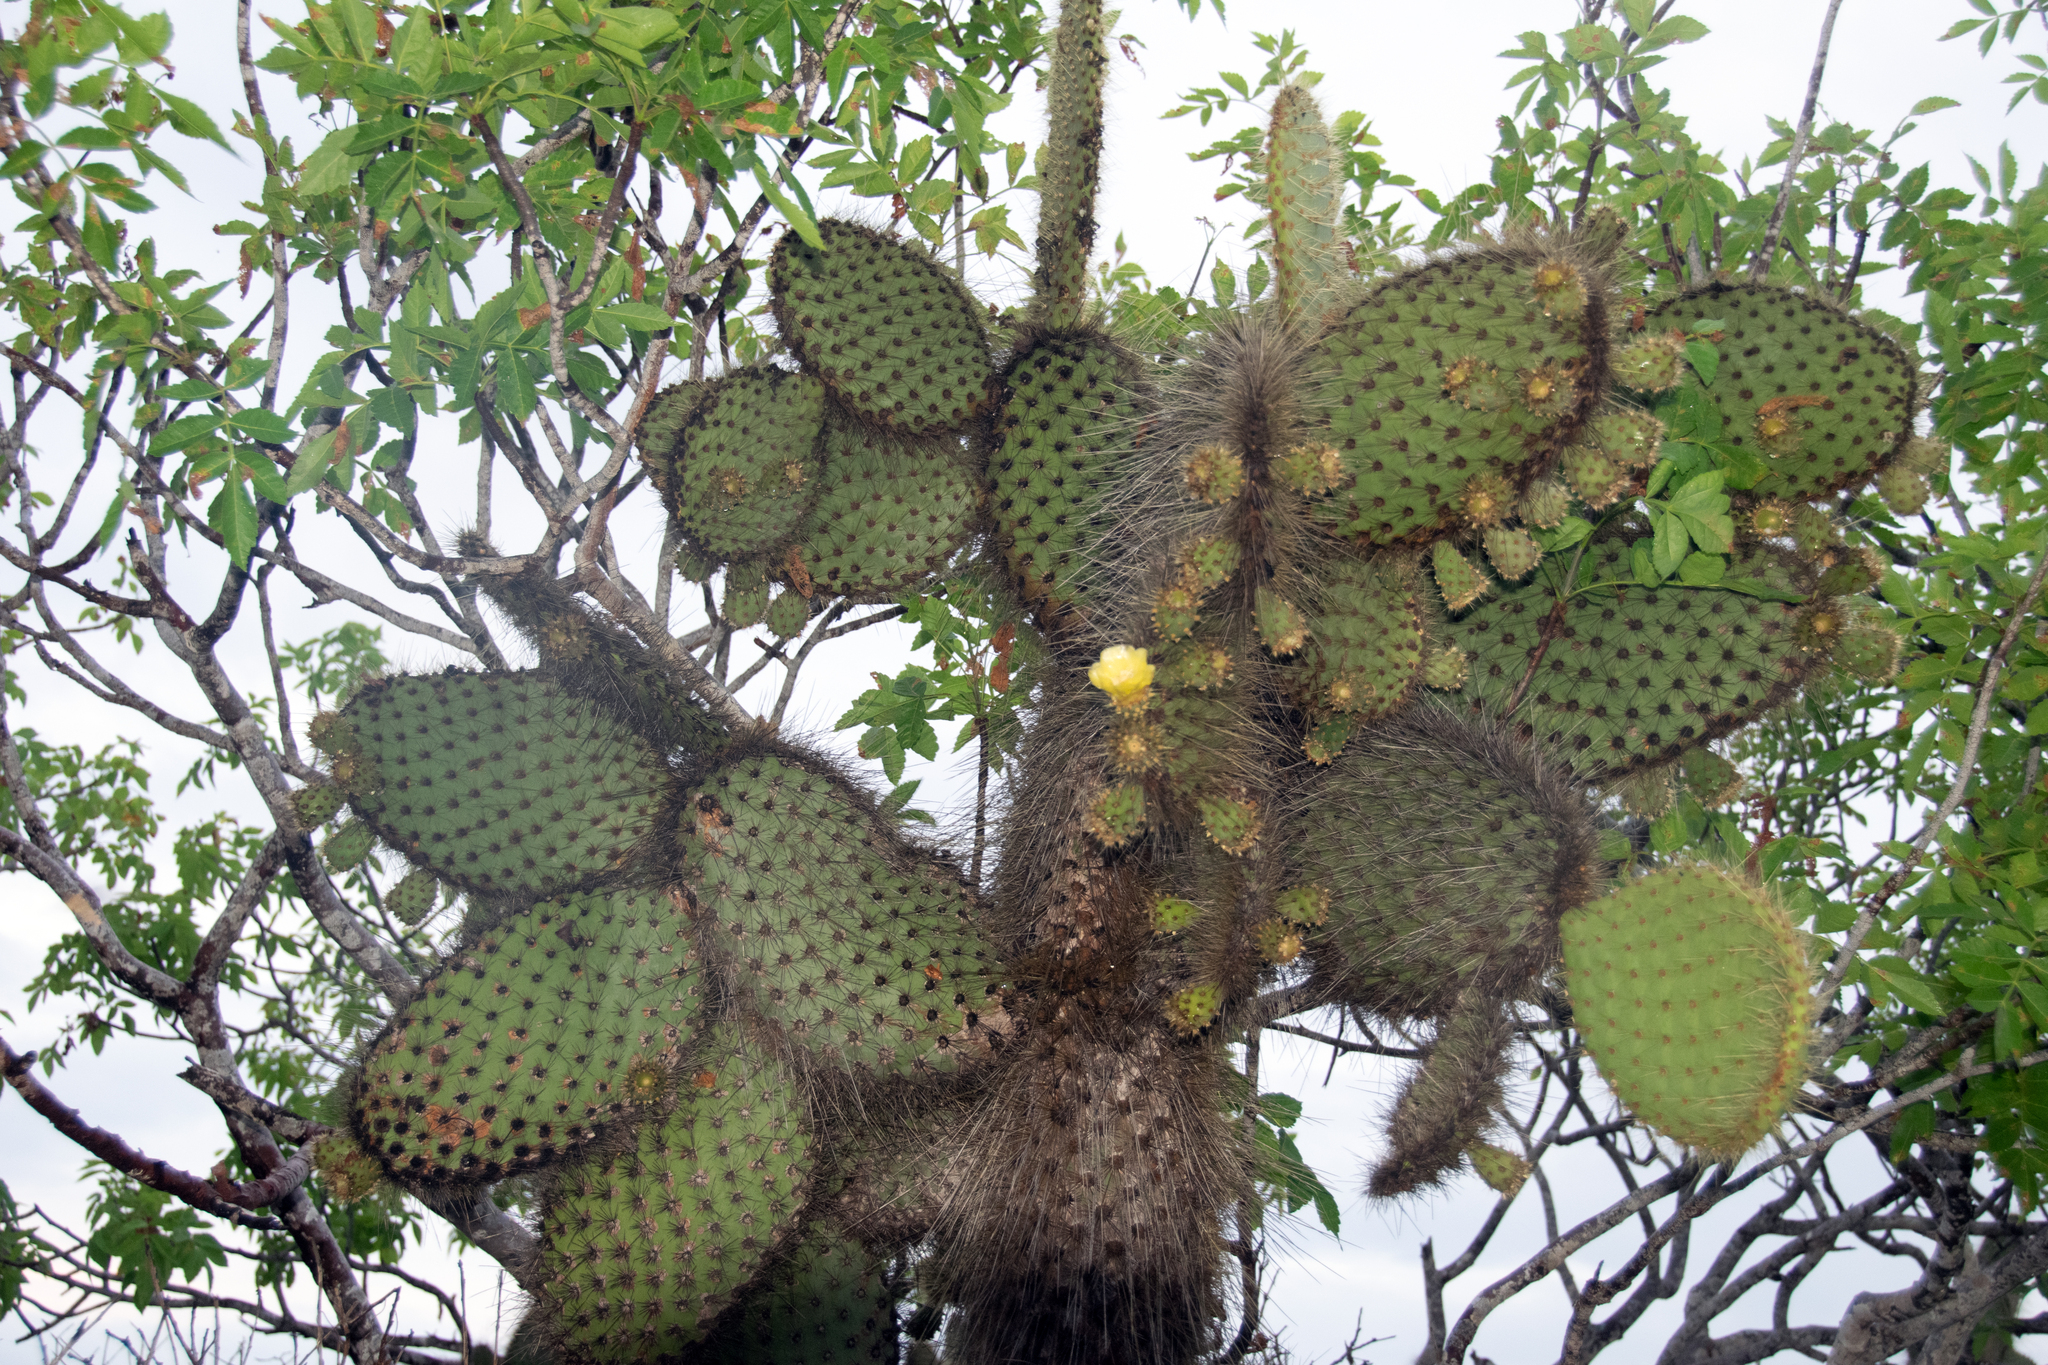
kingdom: Plantae
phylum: Tracheophyta
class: Magnoliopsida
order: Caryophyllales
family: Cactaceae
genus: Opuntia
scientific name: Opuntia galapageia
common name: Galápagos prickly pear
